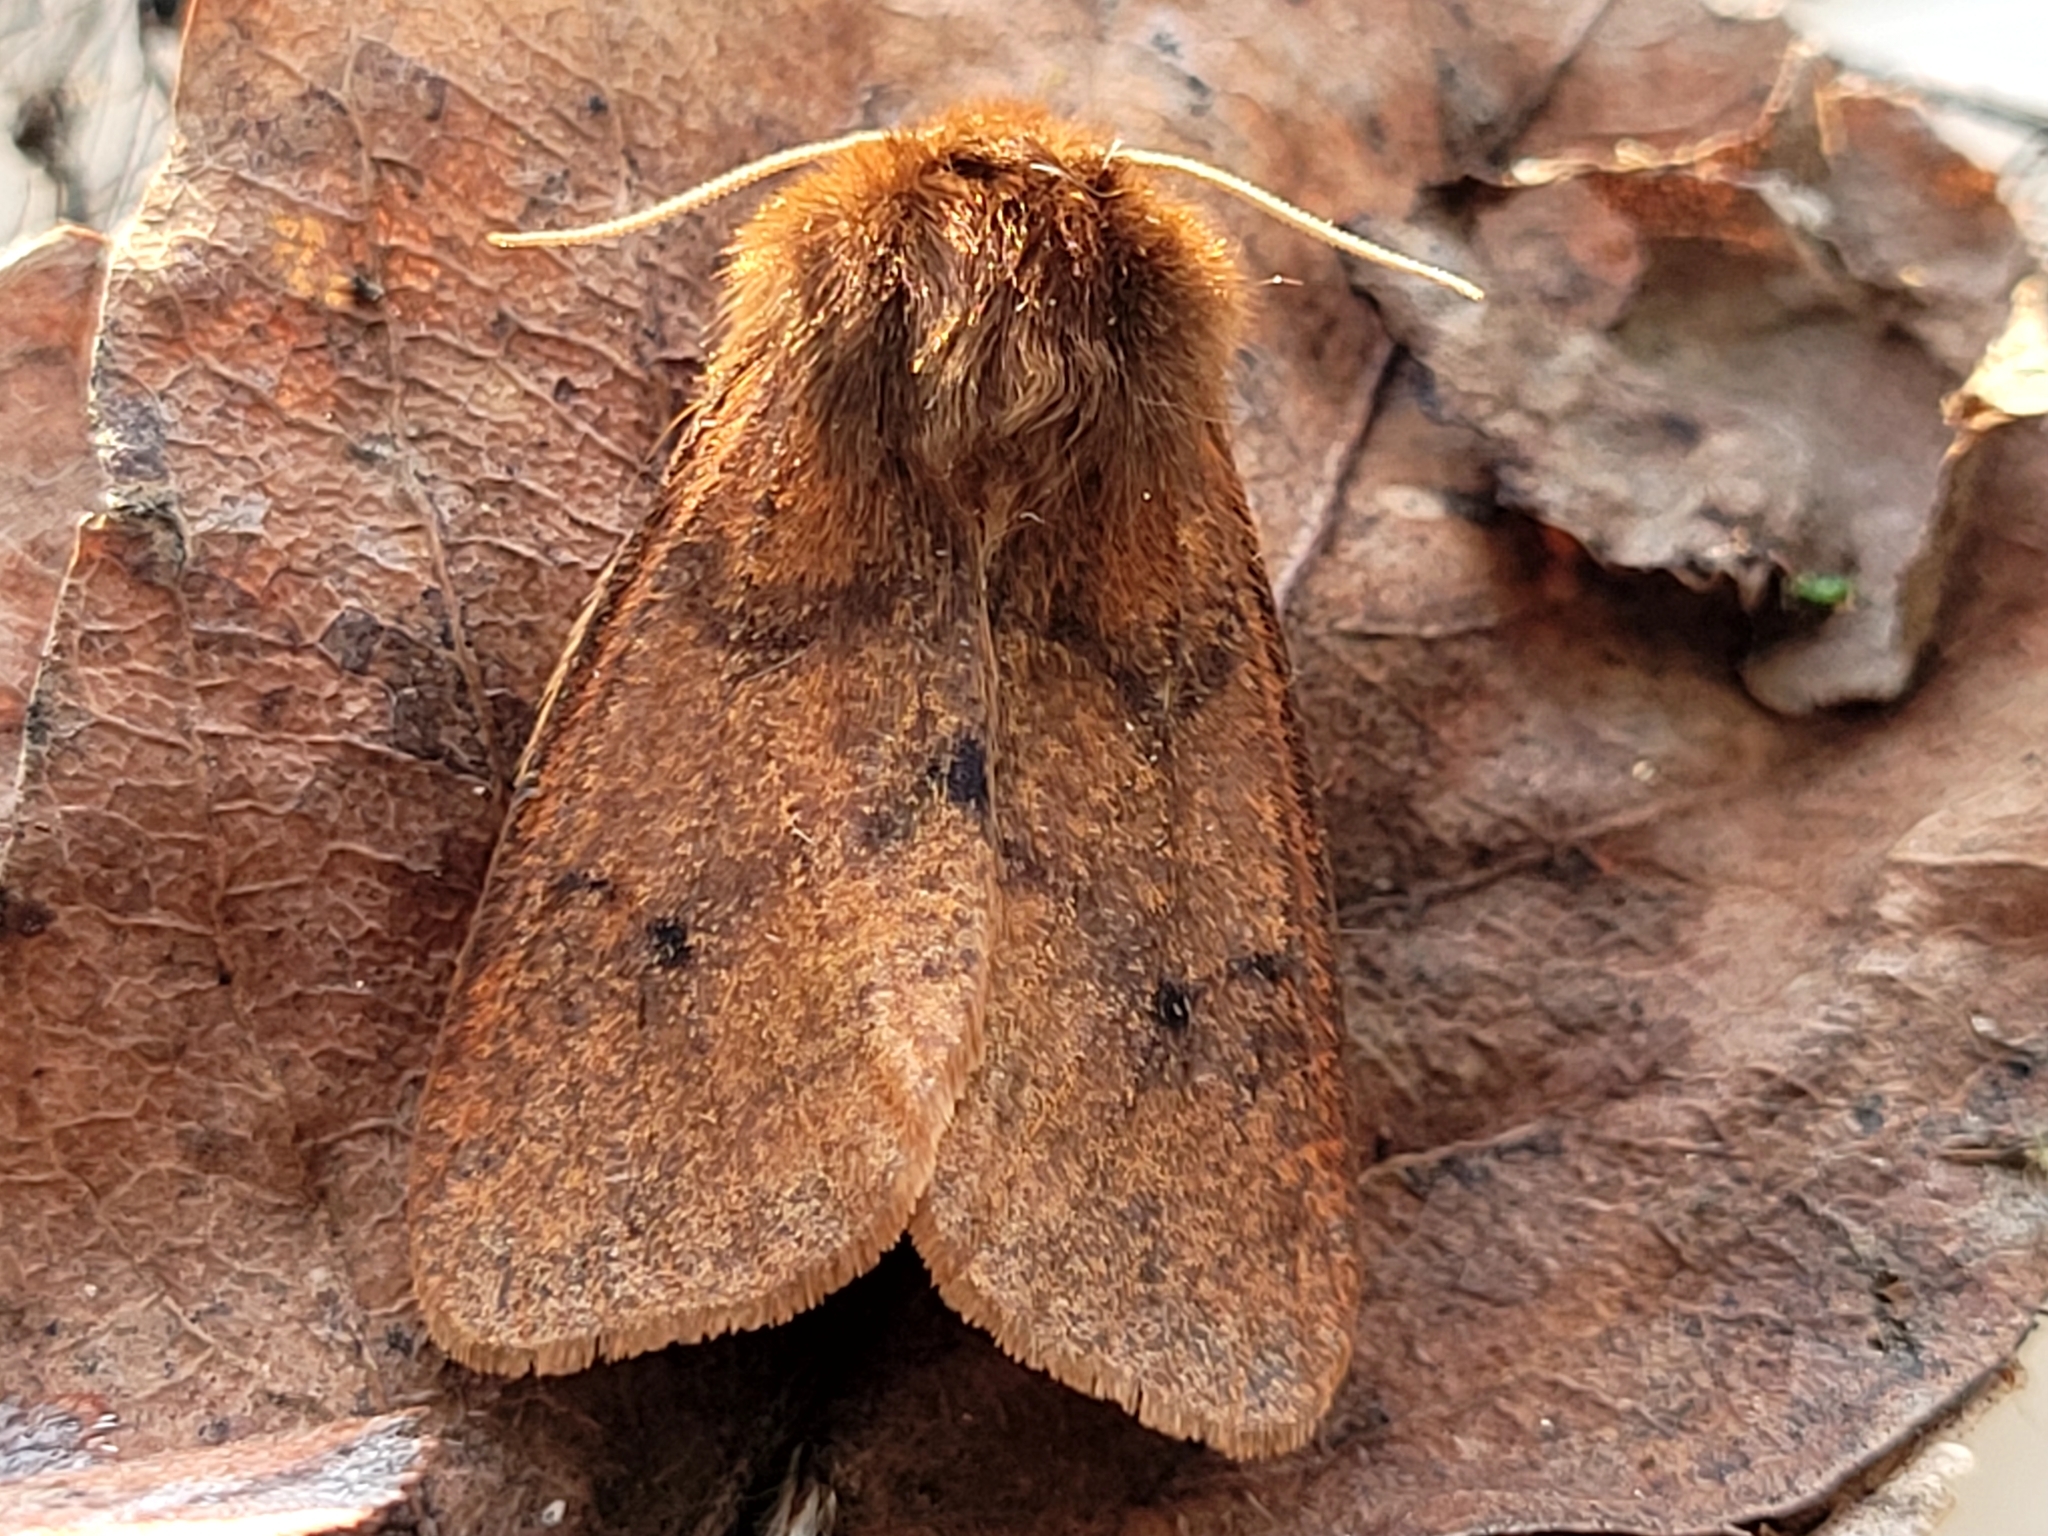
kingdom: Animalia
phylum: Arthropoda
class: Insecta
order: Lepidoptera
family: Erebidae
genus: Phragmatobia
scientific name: Phragmatobia assimilans
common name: Large ruby tiger moth
